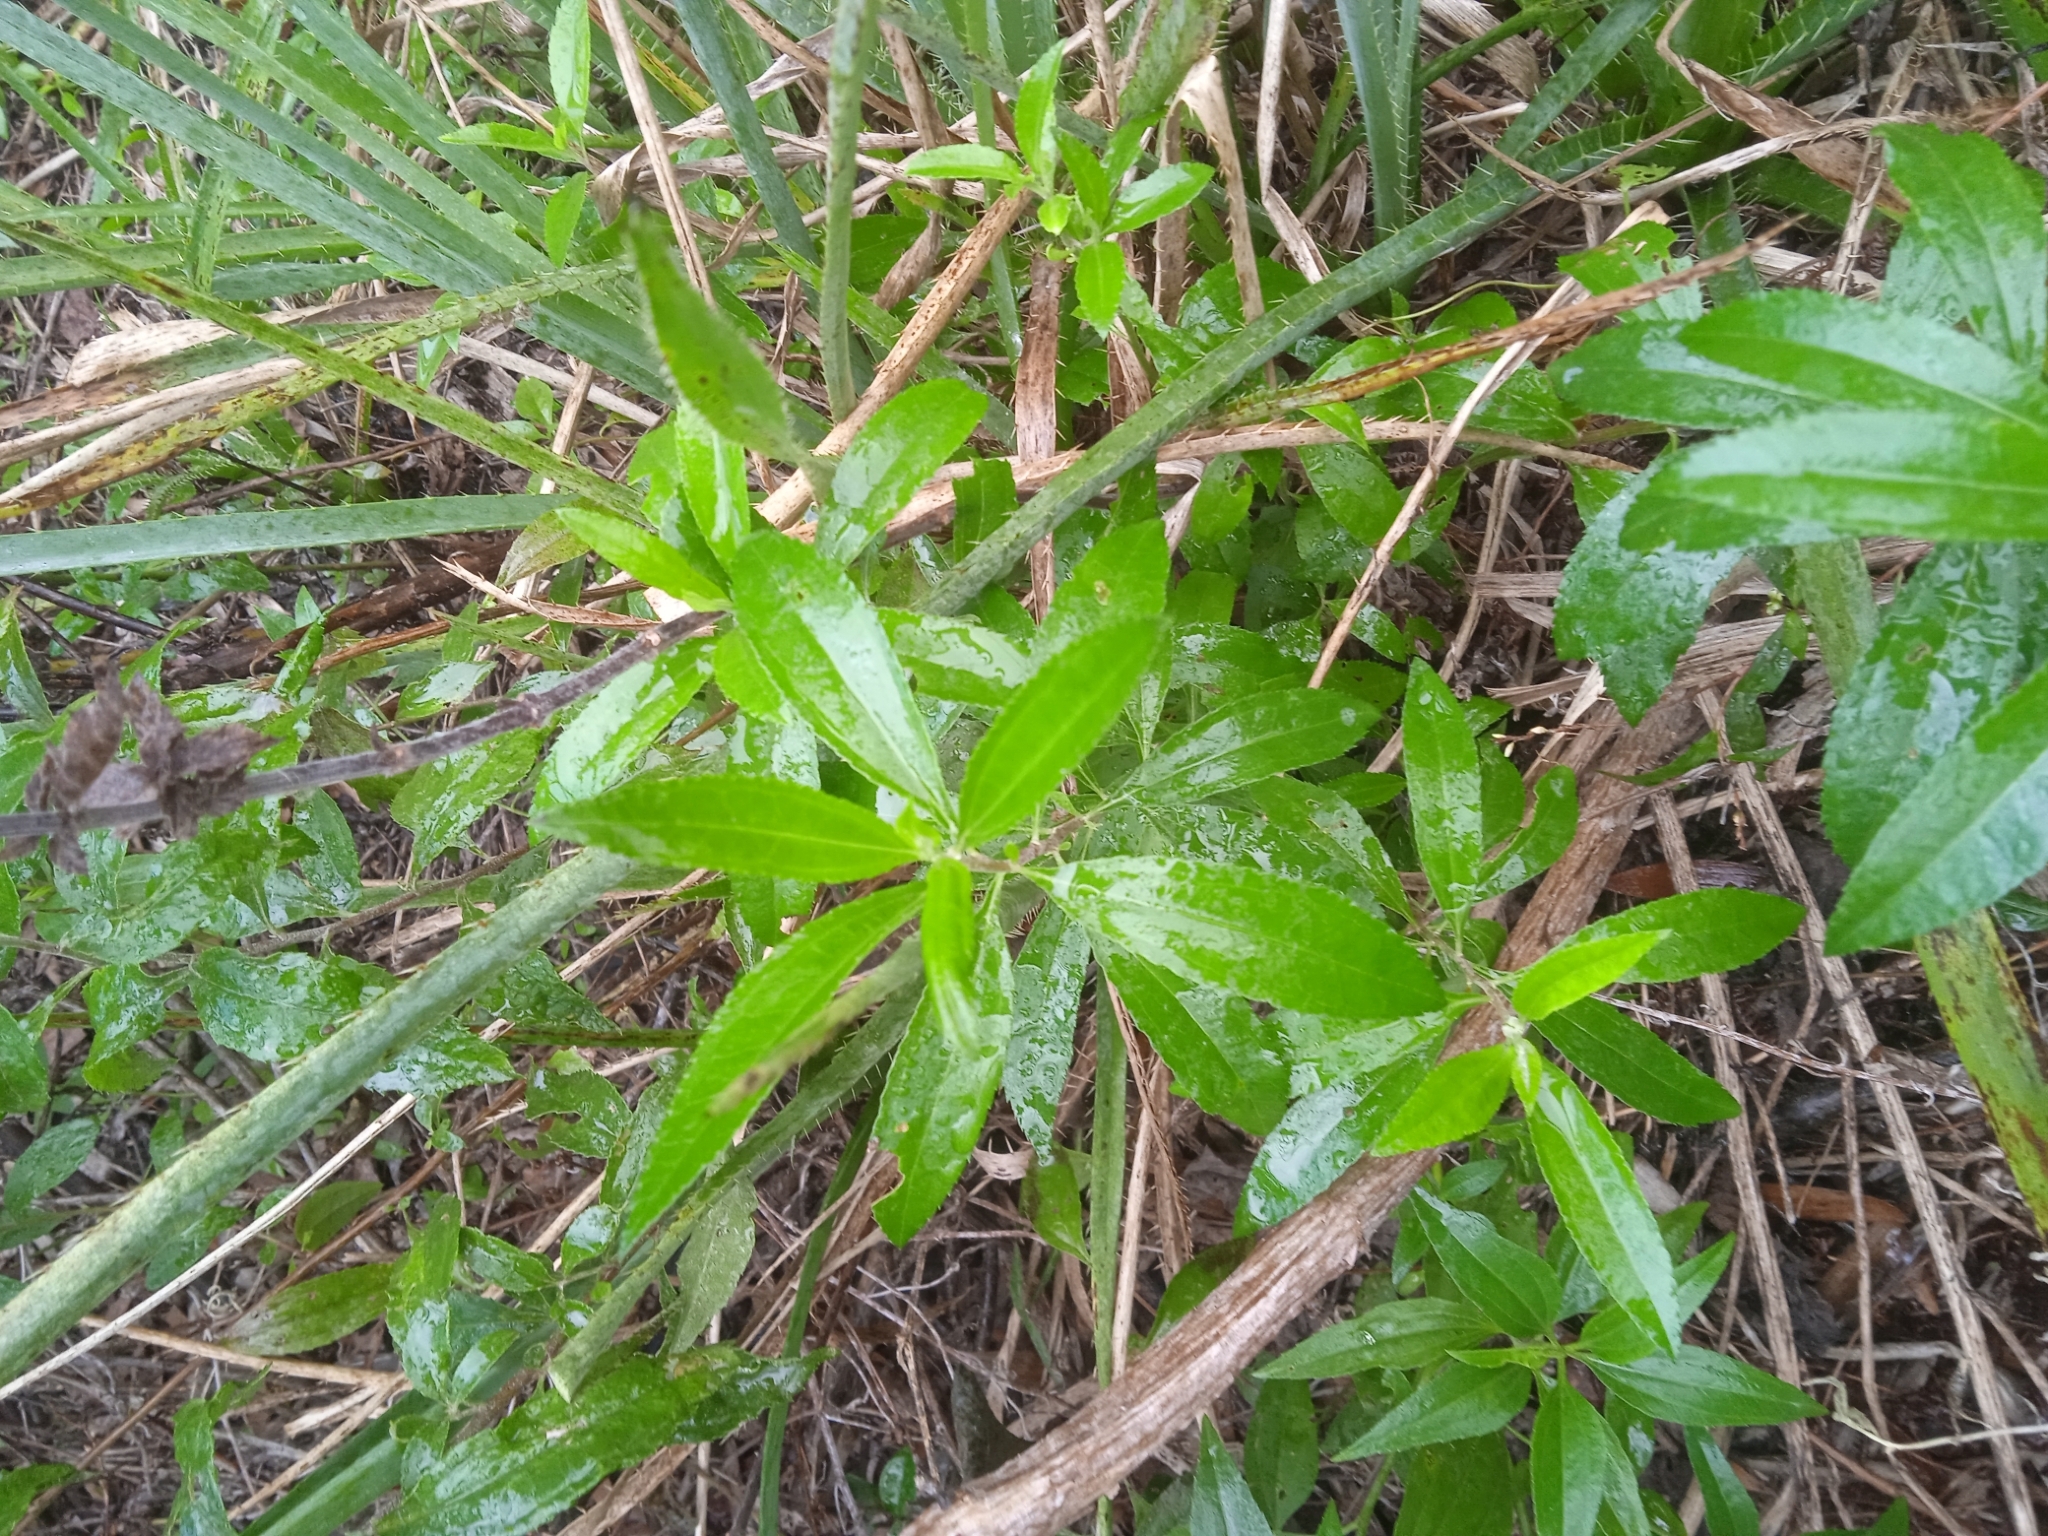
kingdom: Plantae
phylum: Tracheophyta
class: Magnoliopsida
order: Asterales
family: Asteraceae
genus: Baccharis
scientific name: Baccharis punctulata
